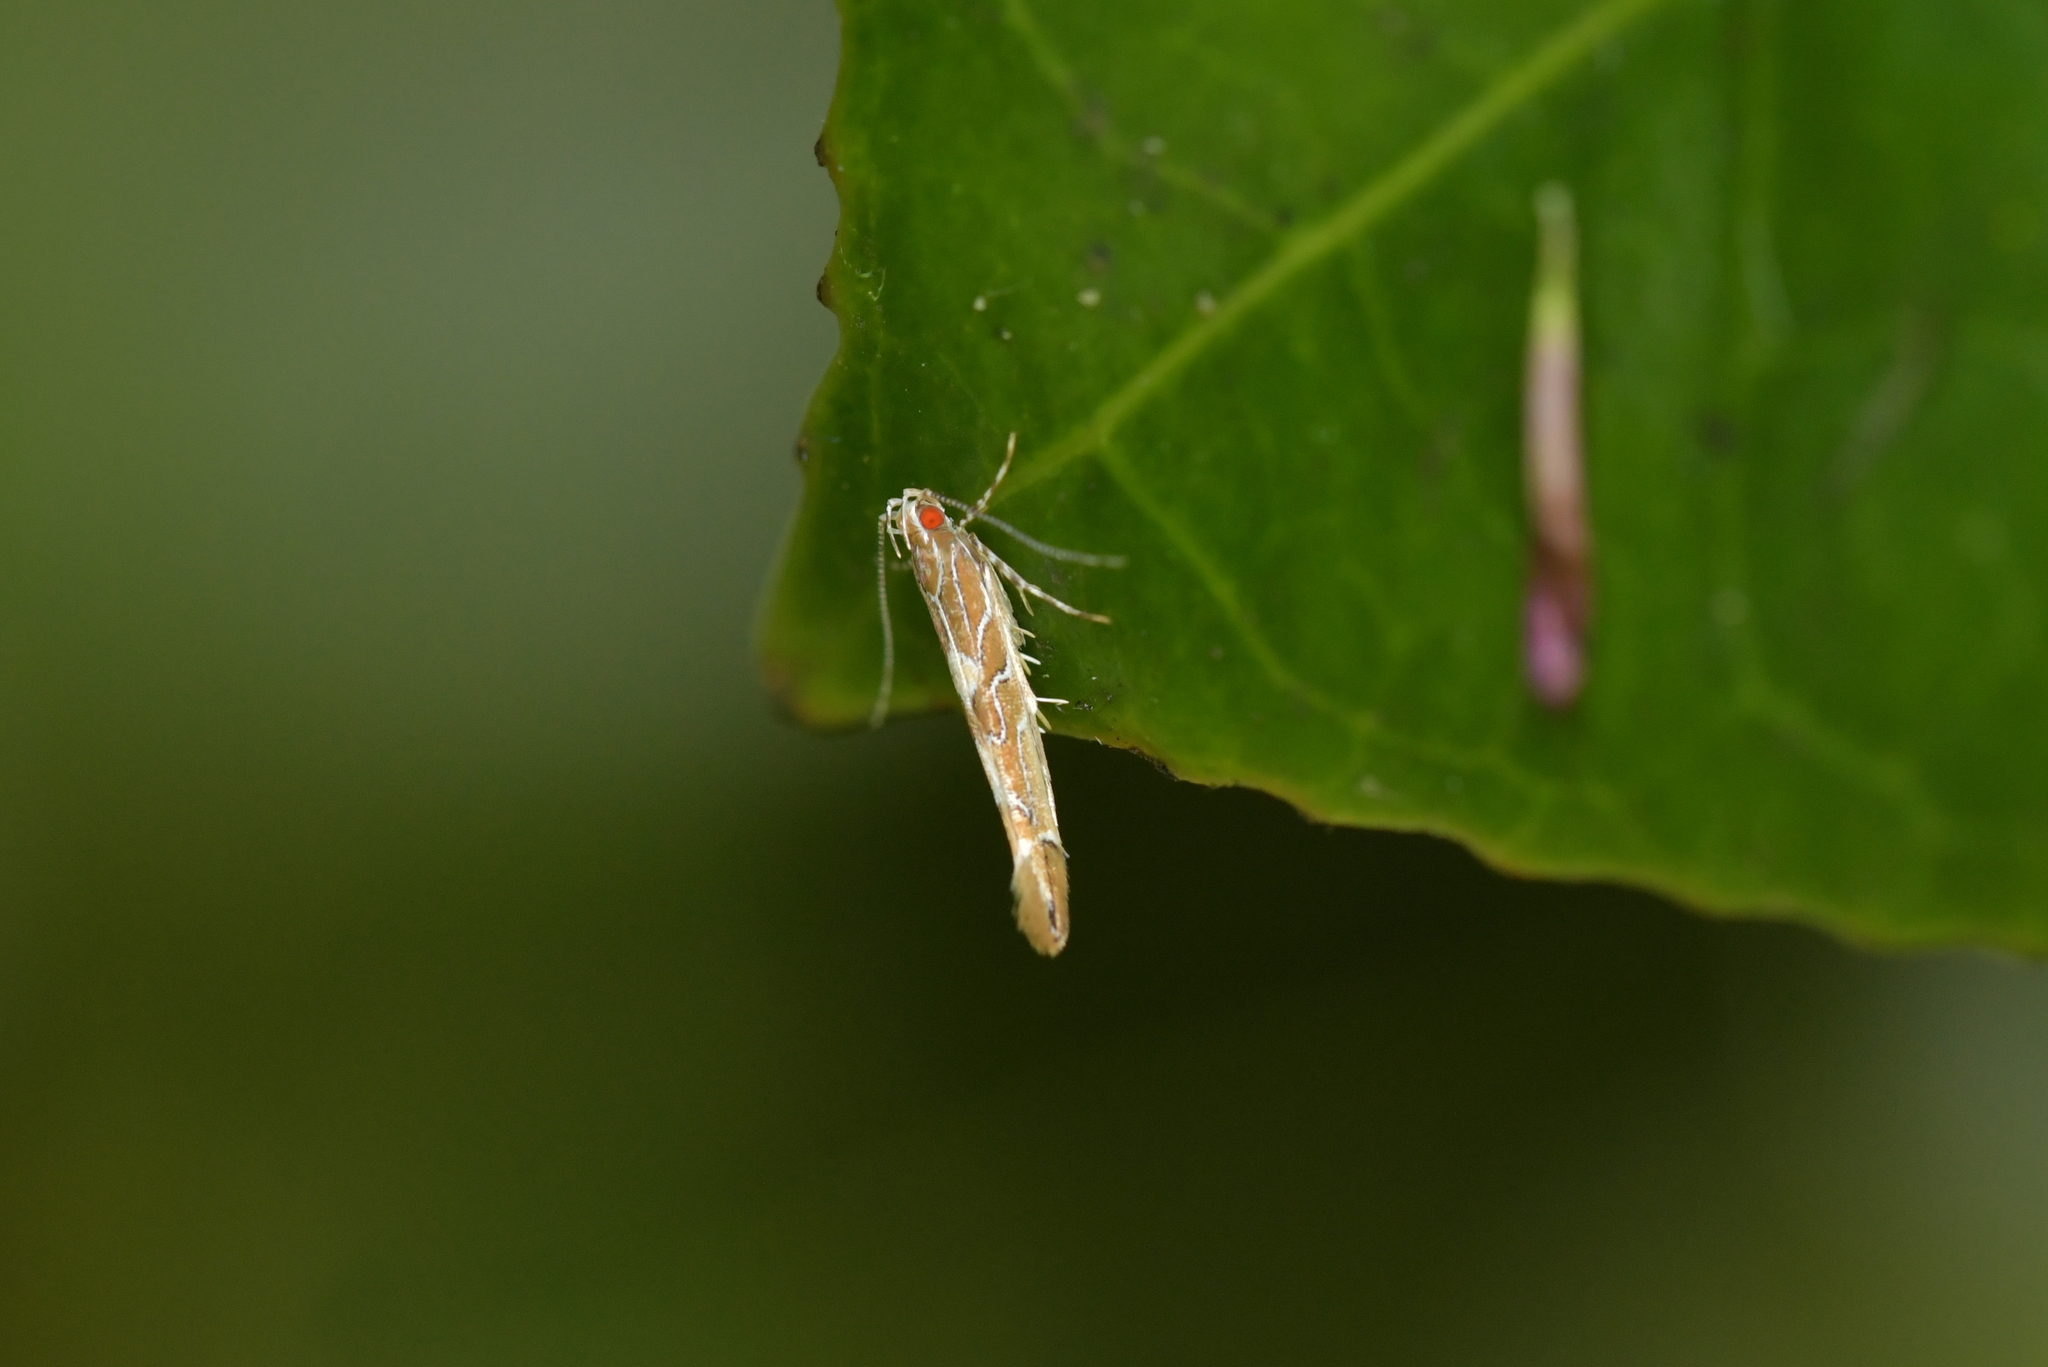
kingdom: Animalia
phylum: Arthropoda
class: Insecta
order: Lepidoptera
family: Cosmopterigidae
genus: Pyroderces
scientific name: Pyroderces apparitella
